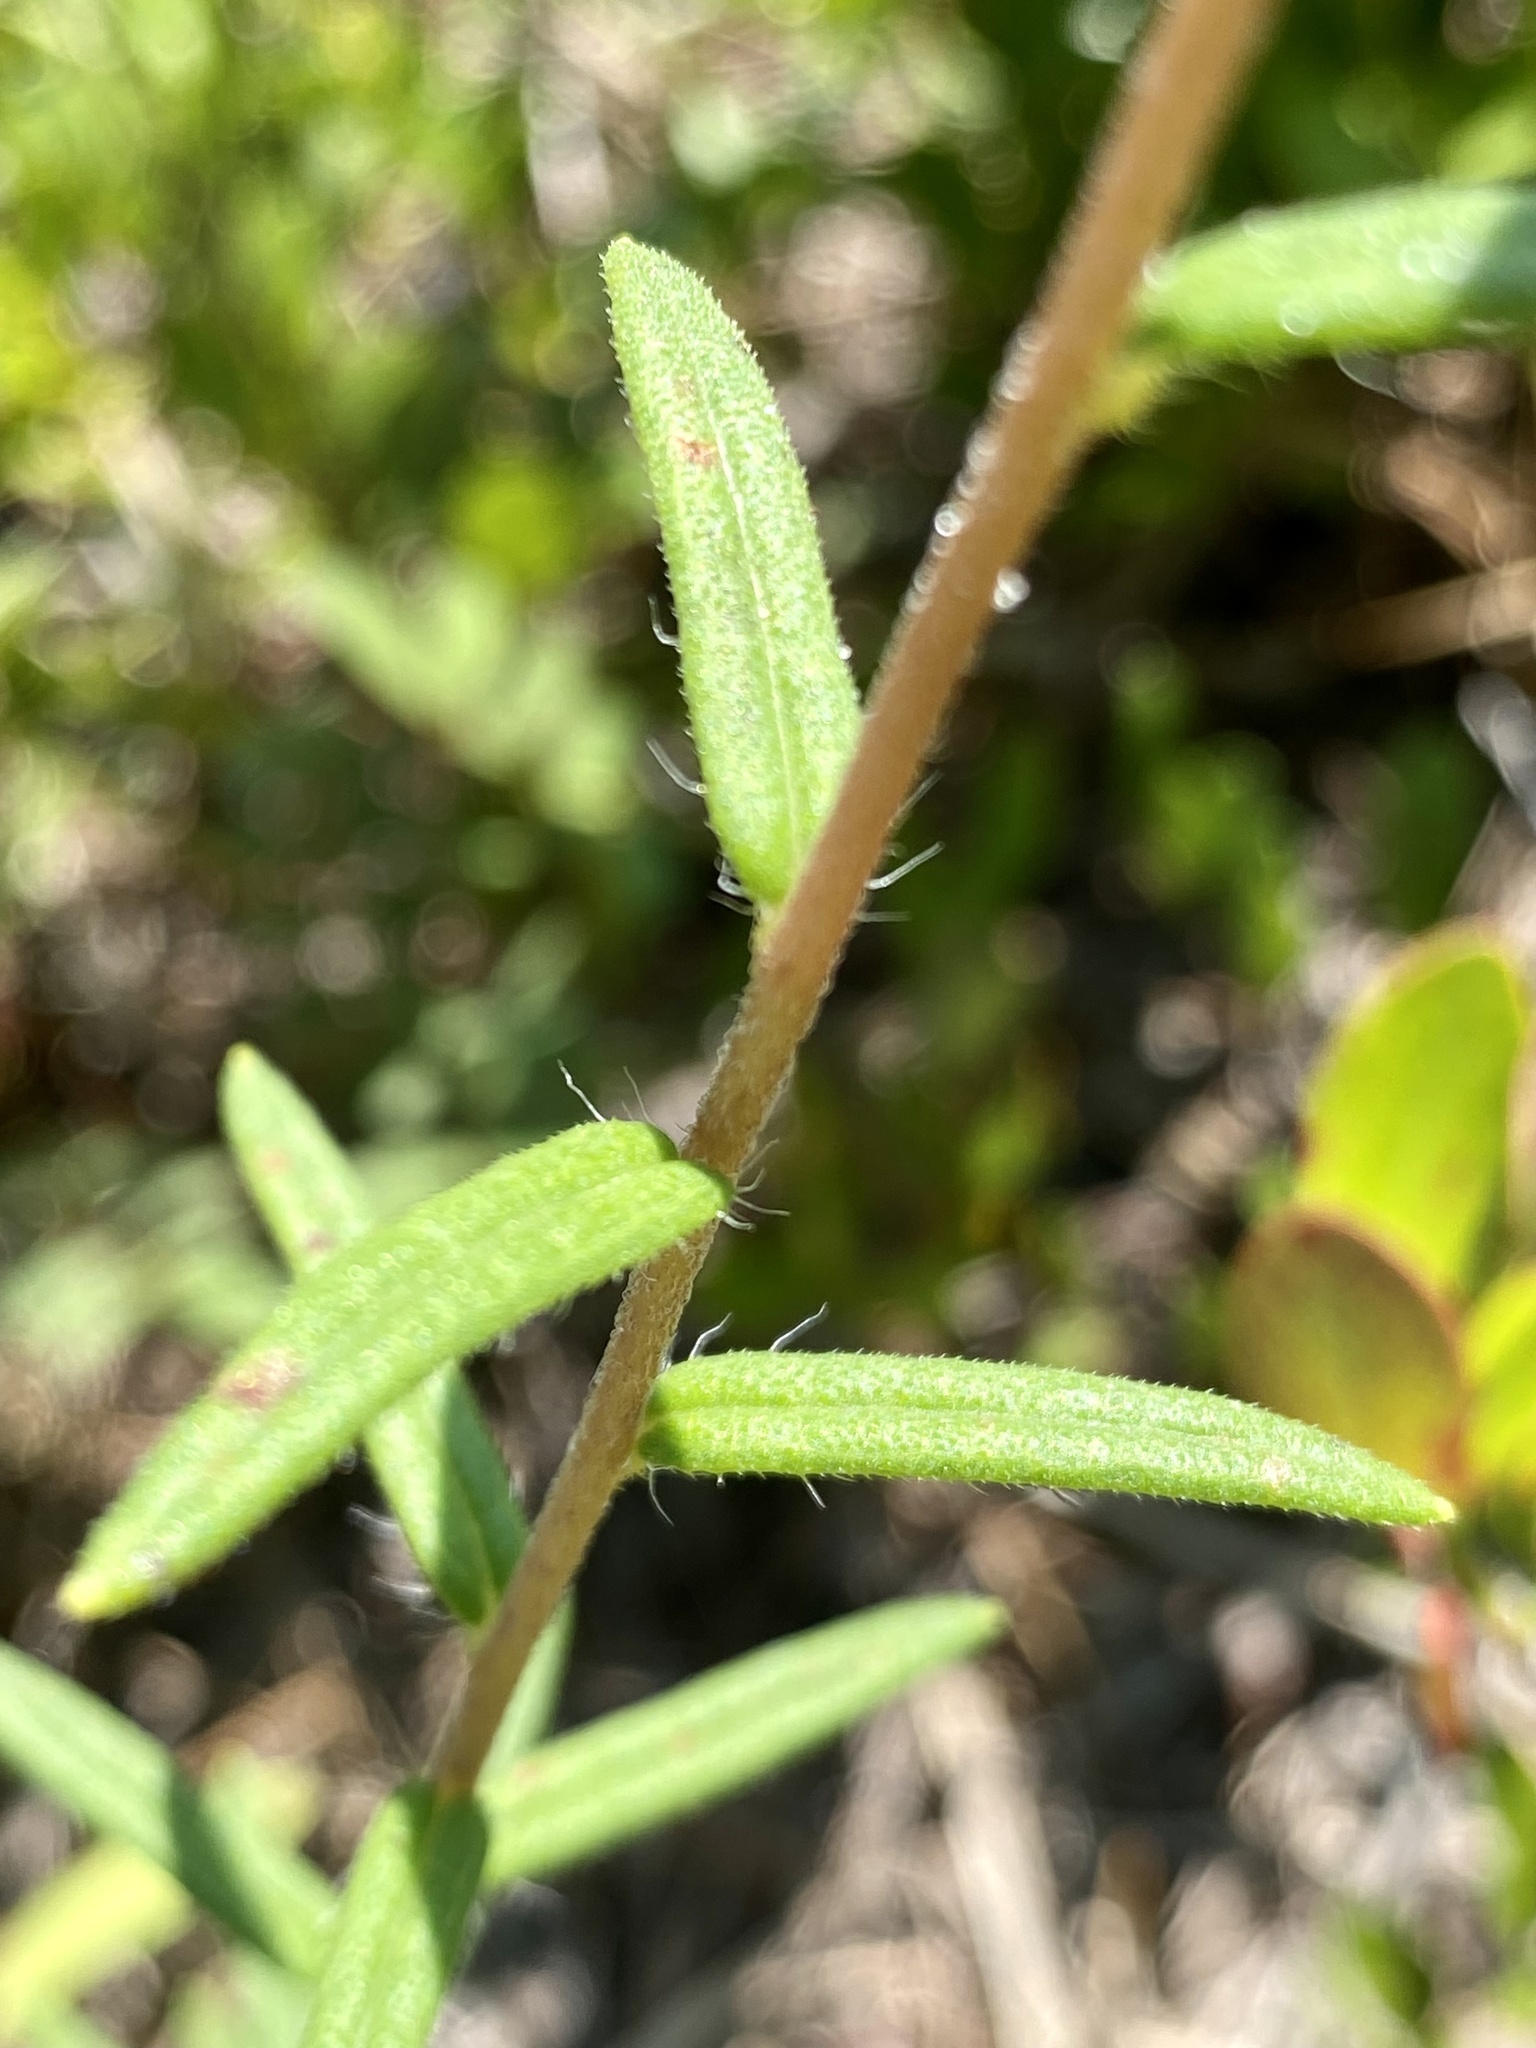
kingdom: Plantae
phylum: Tracheophyta
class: Magnoliopsida
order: Asterales
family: Asteraceae
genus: Phoebanthus
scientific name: Phoebanthus grandiflora
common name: Florida false sunflower
